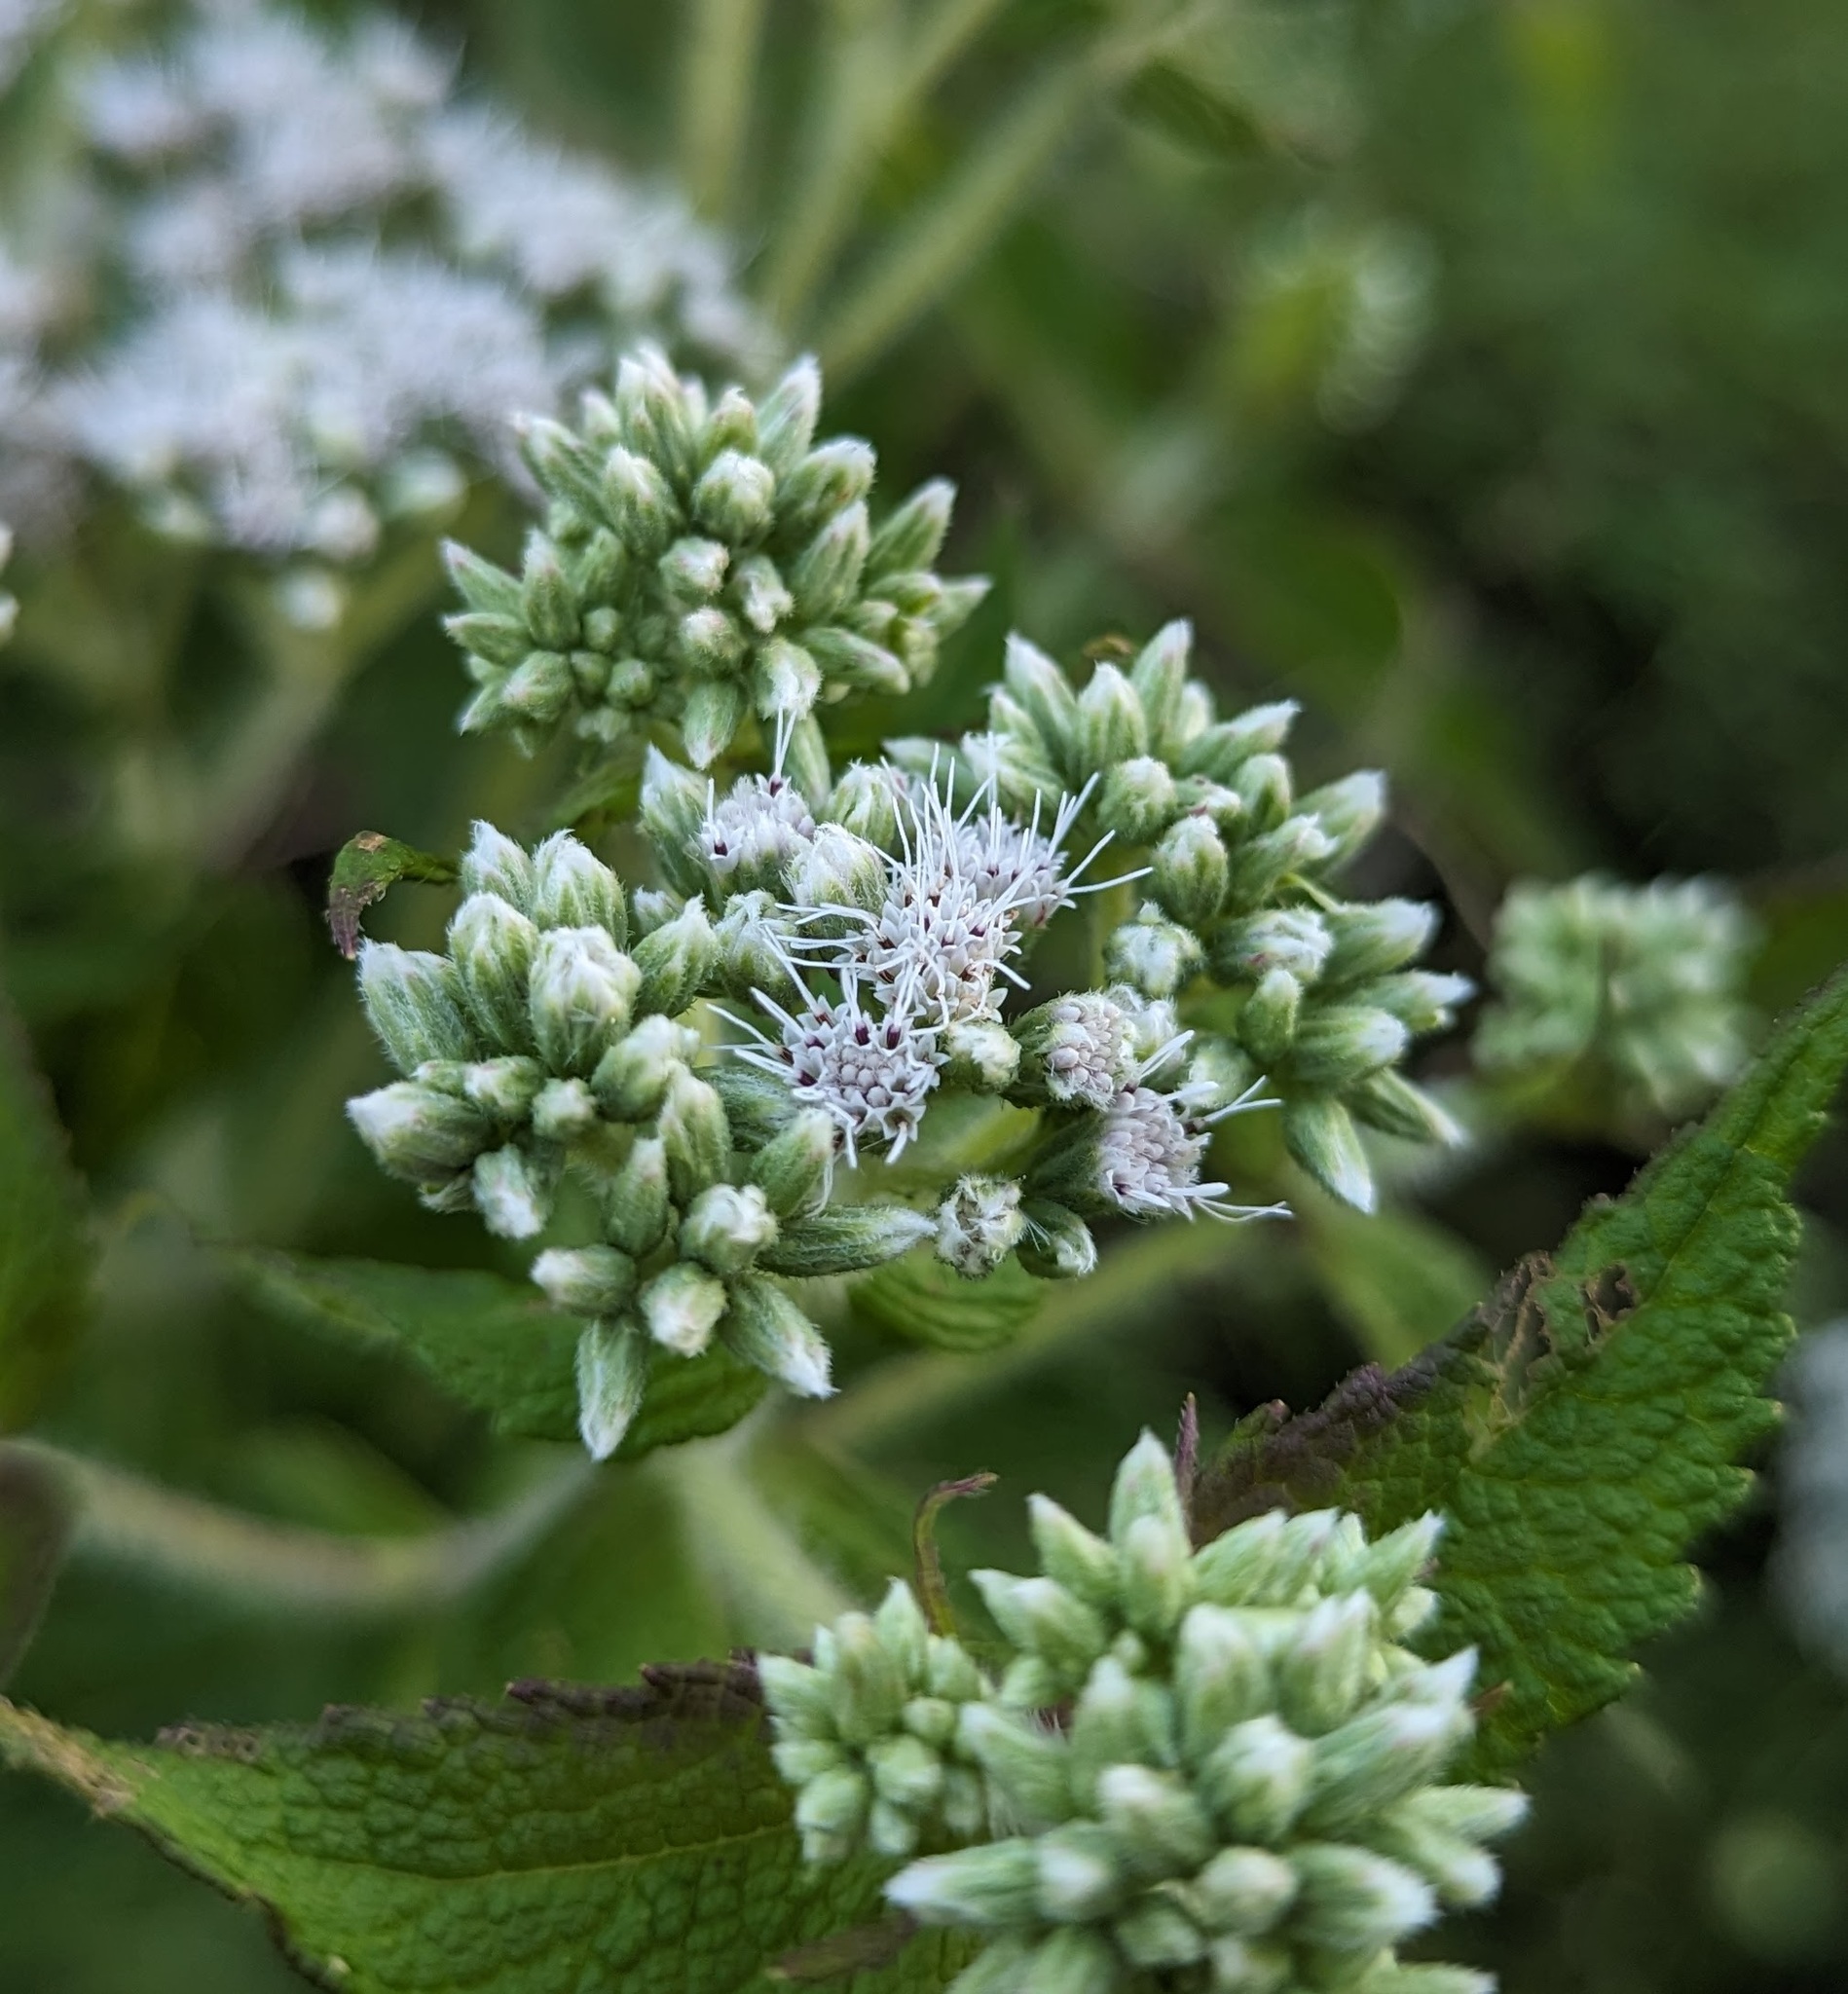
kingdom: Plantae
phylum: Tracheophyta
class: Magnoliopsida
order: Asterales
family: Asteraceae
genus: Eupatorium
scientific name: Eupatorium perfoliatum
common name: Boneset
